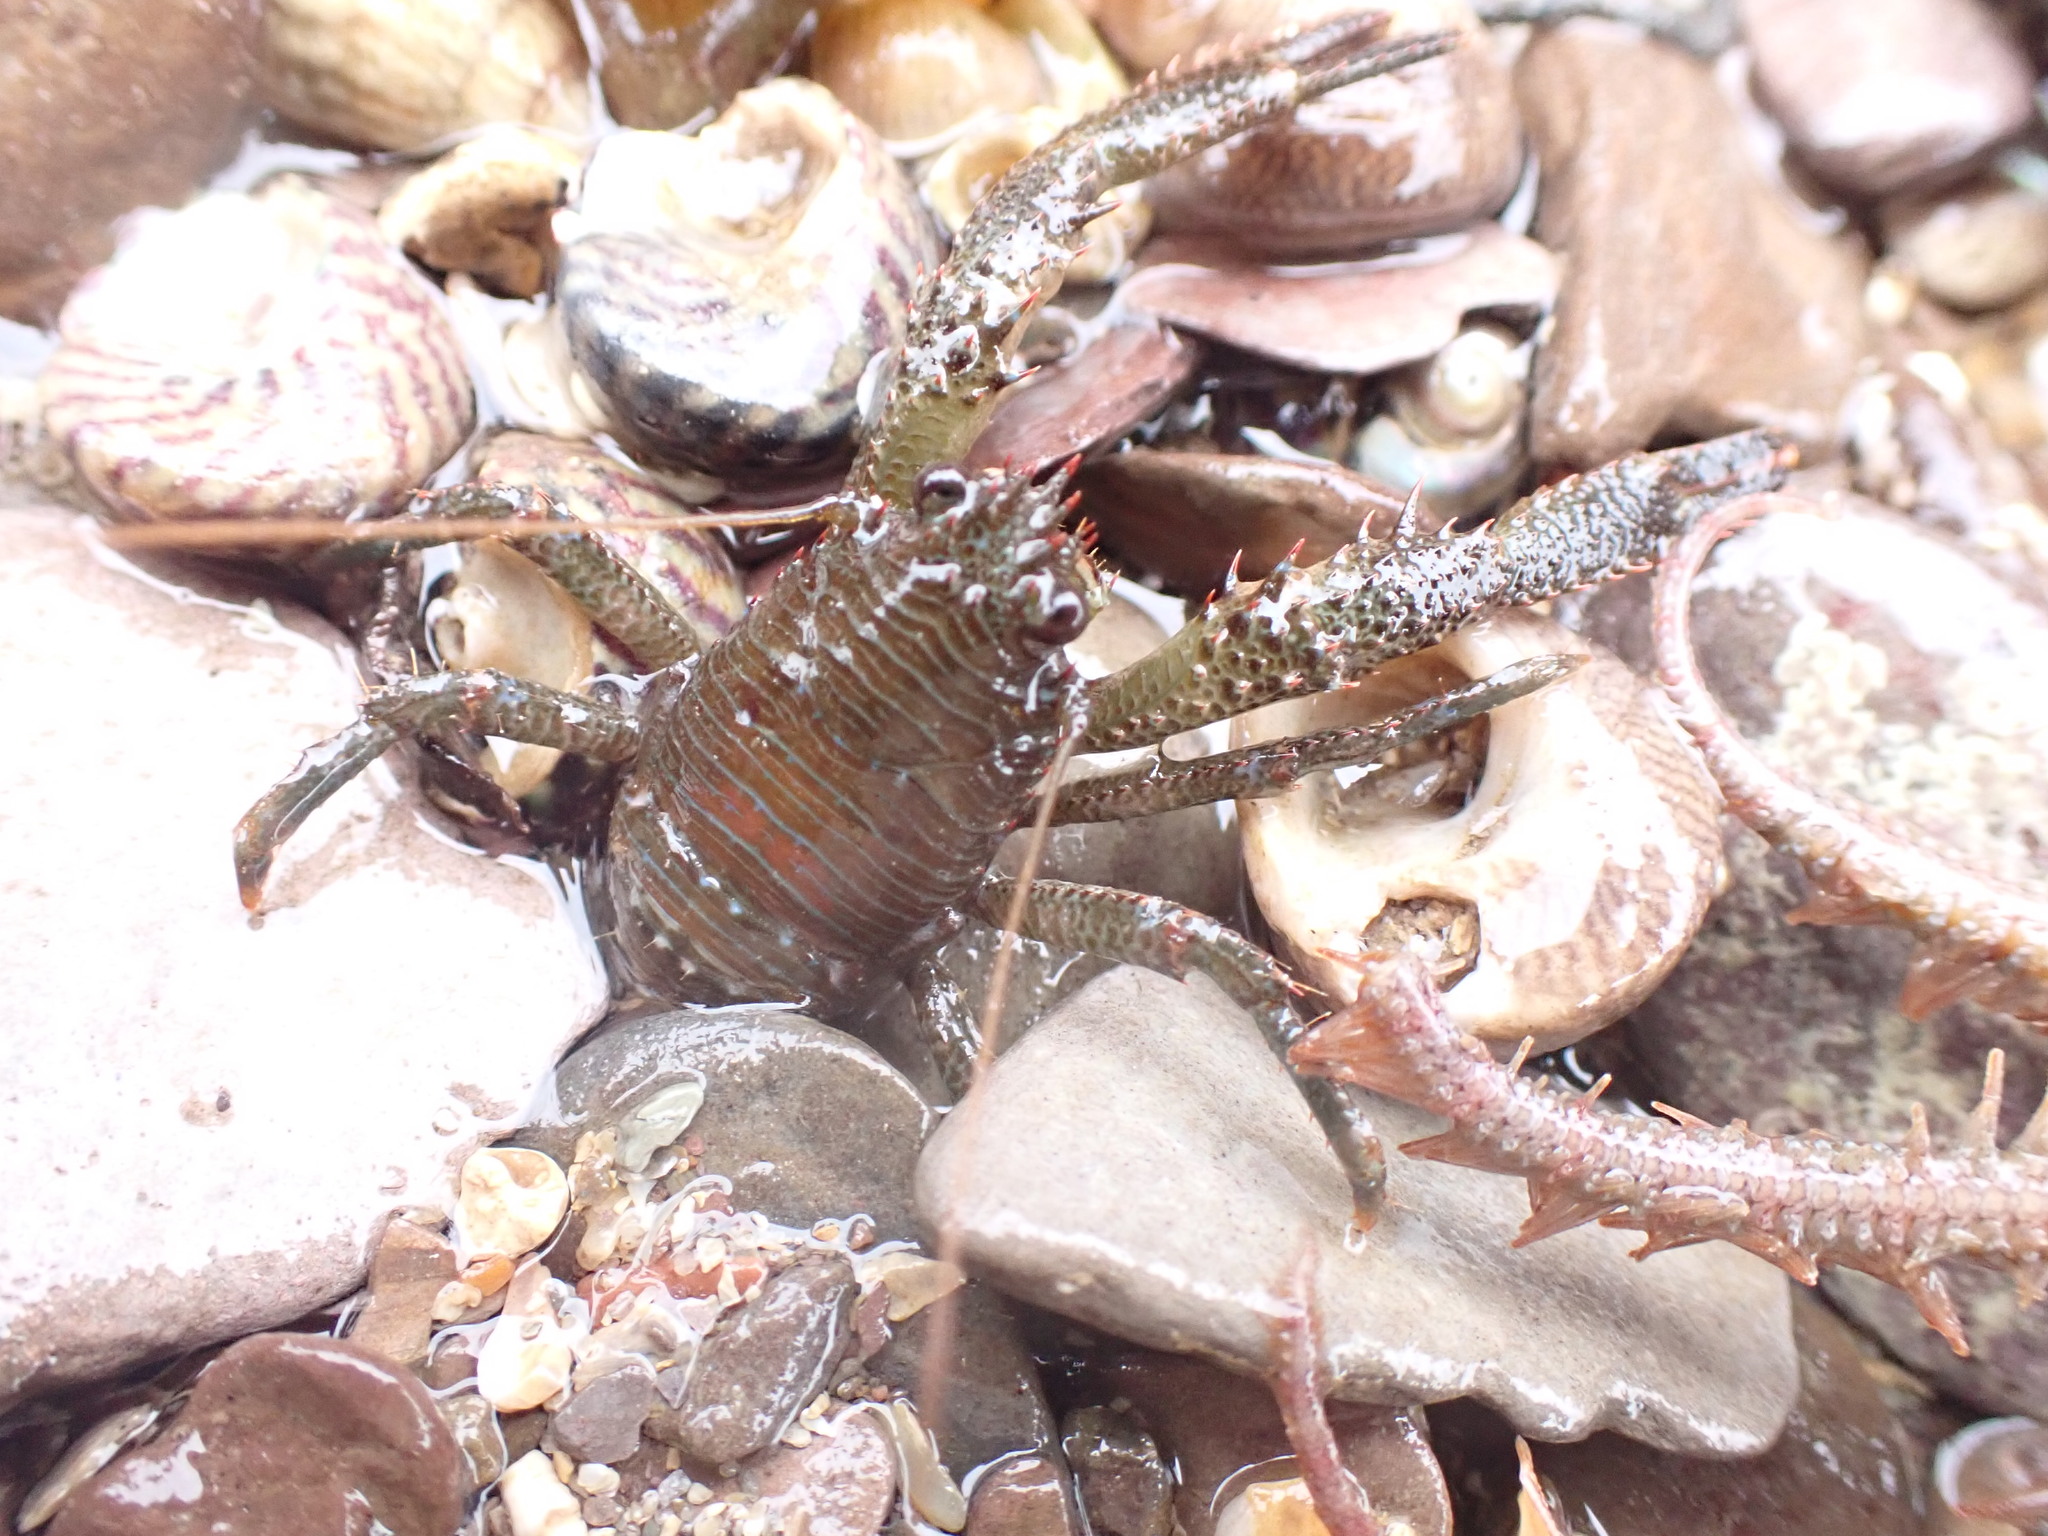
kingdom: Animalia
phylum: Arthropoda
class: Malacostraca
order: Decapoda
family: Galatheidae
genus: Galathea
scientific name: Galathea squamifera
